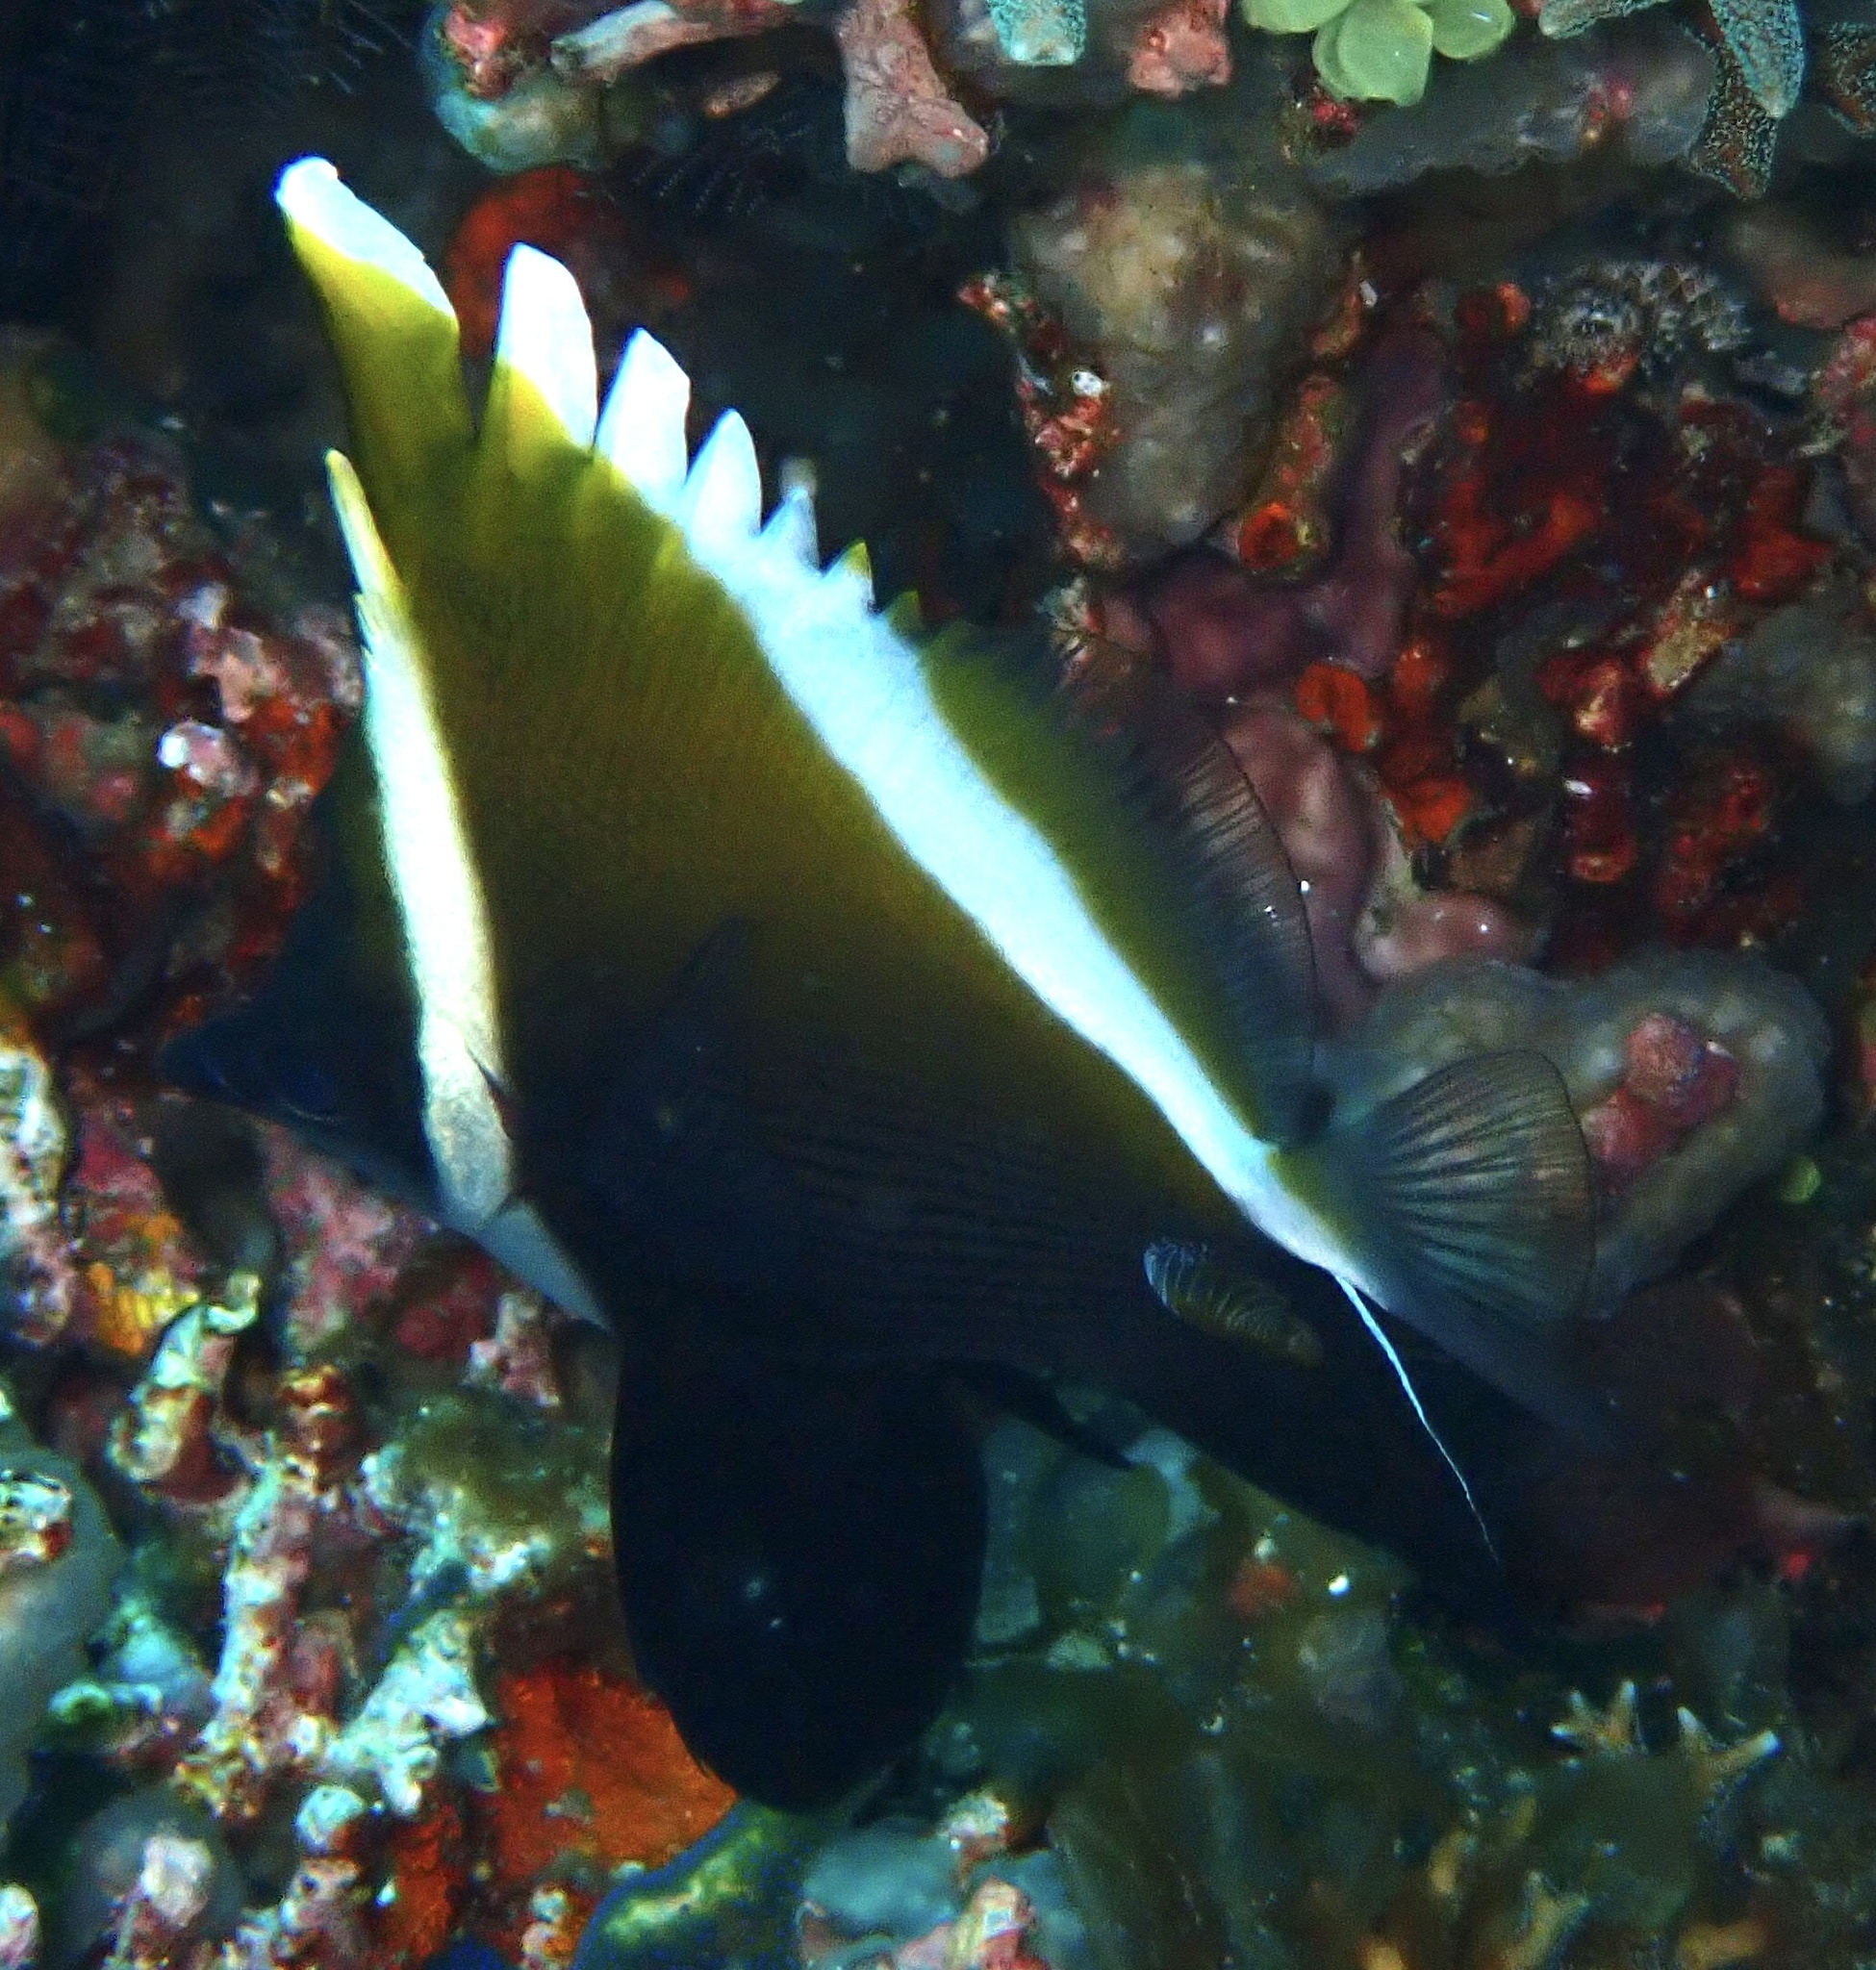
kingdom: Animalia
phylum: Chordata
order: Perciformes
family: Chaetodontidae
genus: Heniochus
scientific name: Heniochus varius
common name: Horned bannerfish
